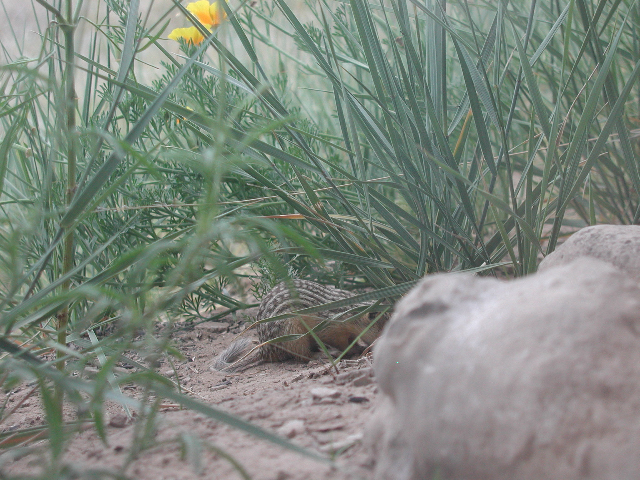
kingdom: Animalia
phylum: Chordata
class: Mammalia
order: Rodentia
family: Sciuridae
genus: Ictidomys
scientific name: Ictidomys tridecemlineatus
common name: Thirteen-lined ground squirrel
